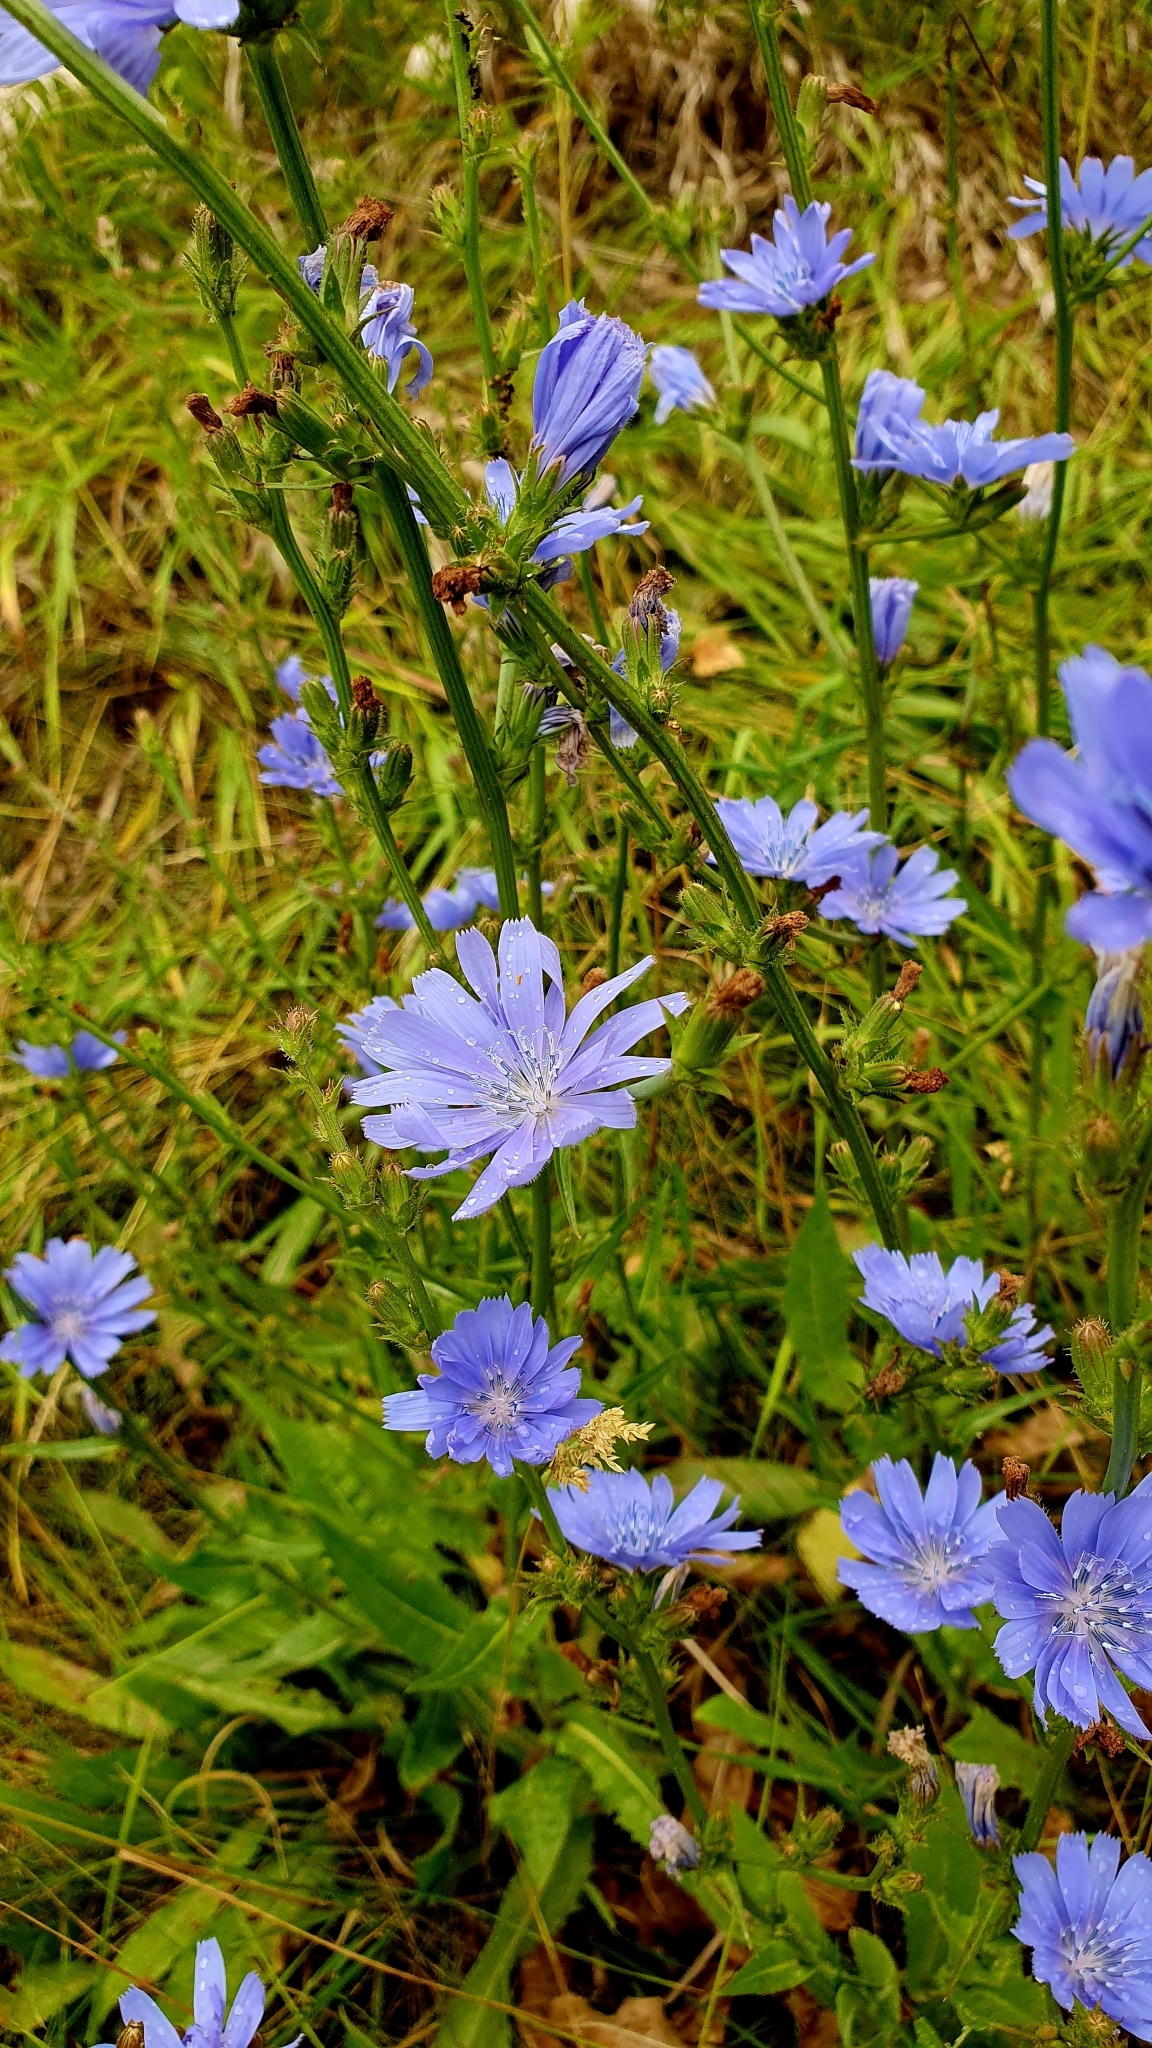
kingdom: Plantae
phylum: Tracheophyta
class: Magnoliopsida
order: Asterales
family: Asteraceae
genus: Cichorium
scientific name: Cichorium intybus
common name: Chicory
